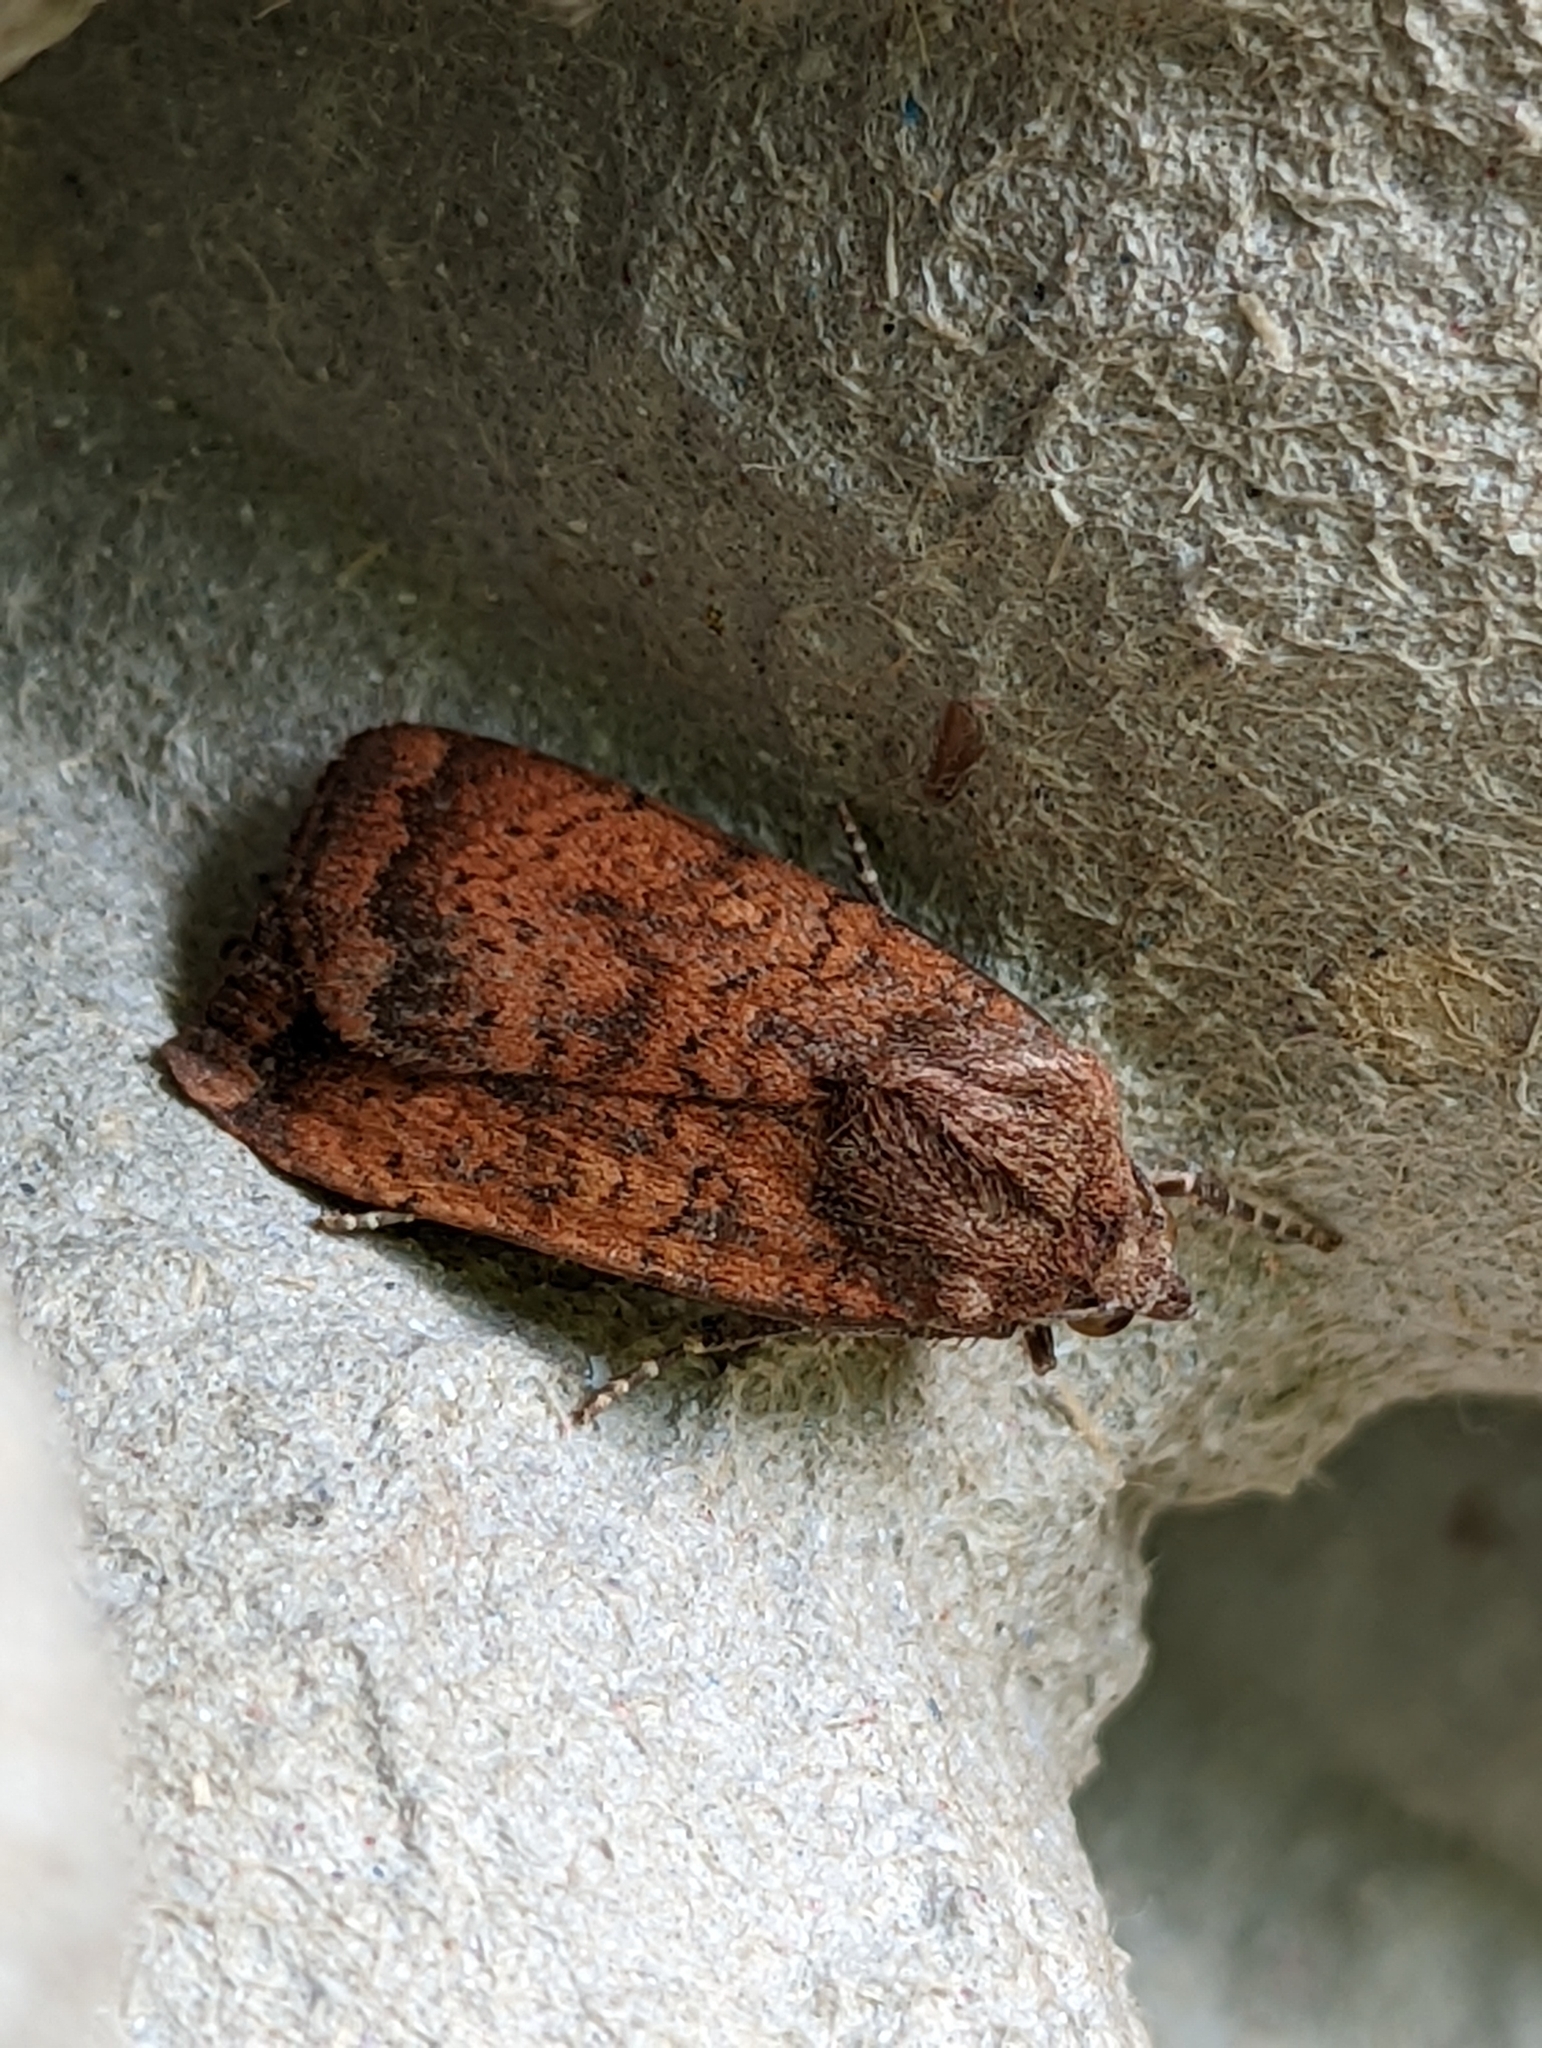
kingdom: Animalia
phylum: Arthropoda
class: Insecta
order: Lepidoptera
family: Noctuidae
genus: Noctua
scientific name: Noctua interjecta
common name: Least yellow underwing
